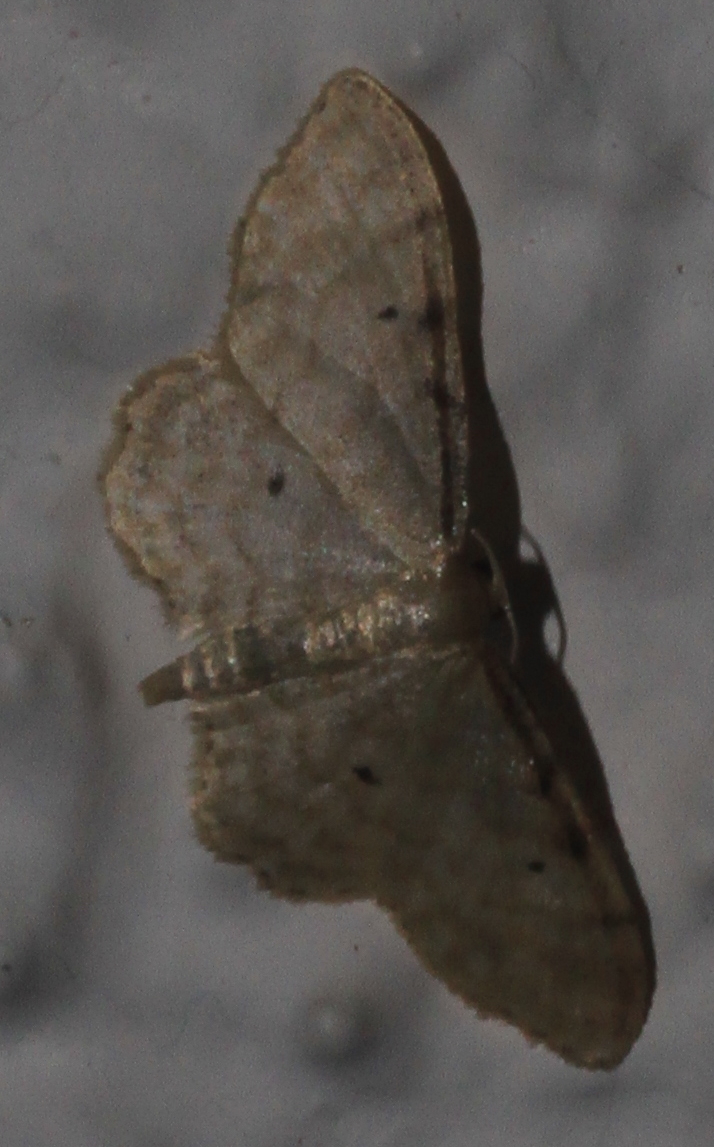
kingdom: Animalia
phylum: Arthropoda
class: Insecta
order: Lepidoptera
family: Geometridae
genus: Idaea
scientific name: Idaea fuscovenosa
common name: Dwarf cream wave
